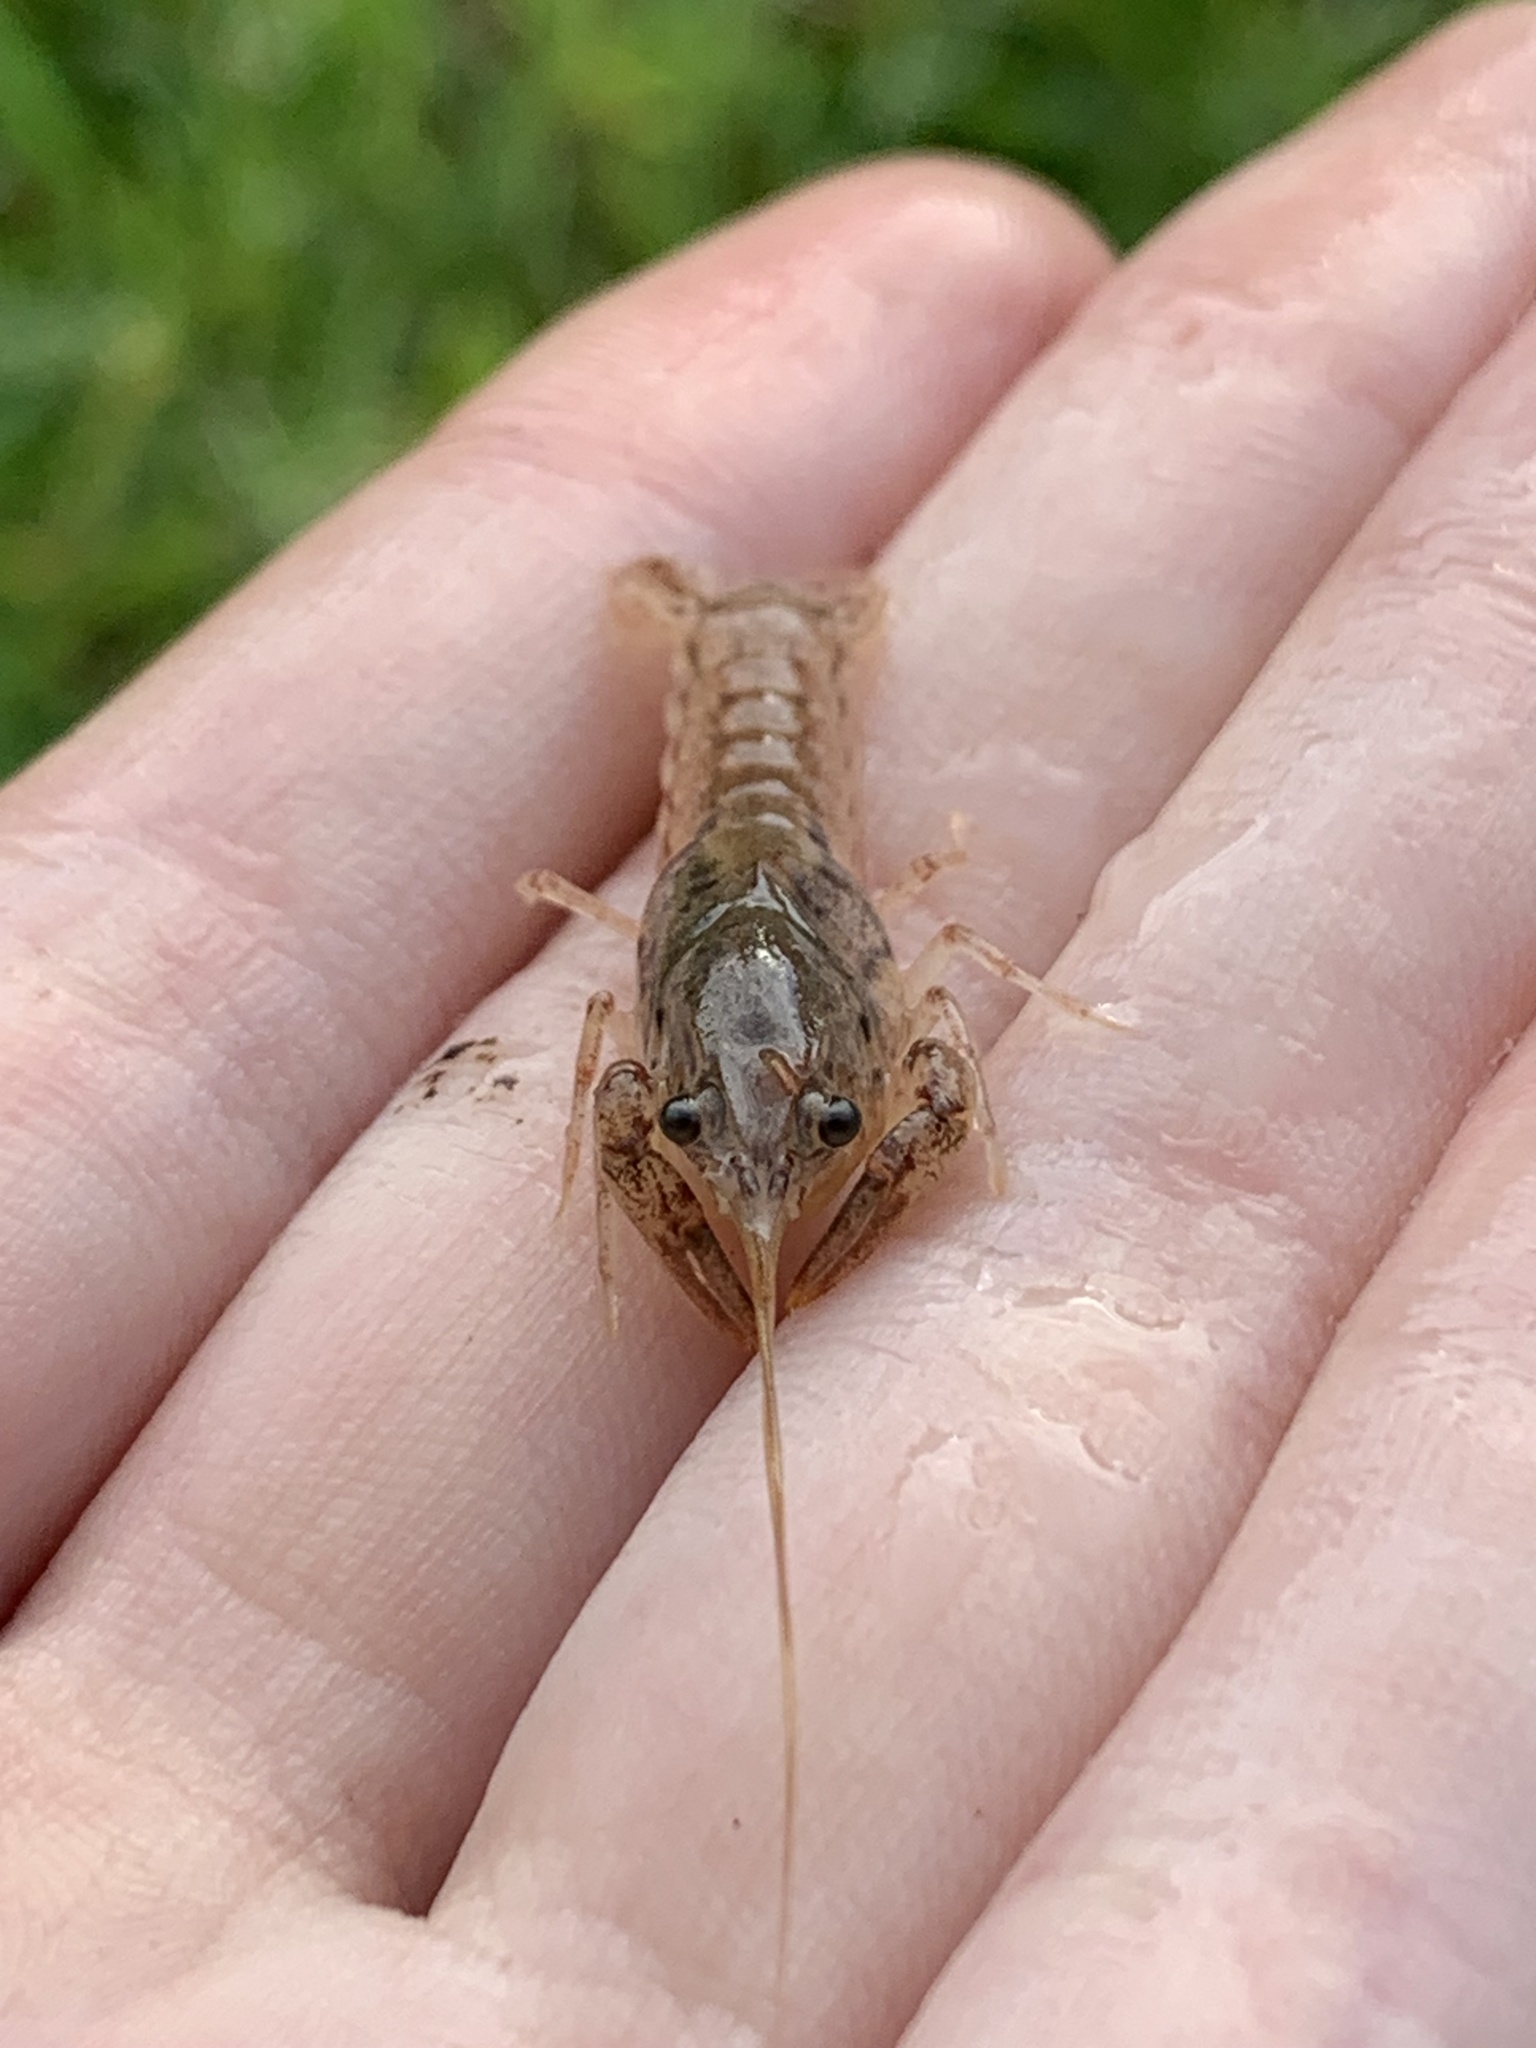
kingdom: Animalia
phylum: Arthropoda
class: Malacostraca
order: Decapoda
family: Cambaridae
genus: Procambarus
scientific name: Procambarus curdi
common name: Red river burrowing crayfish
